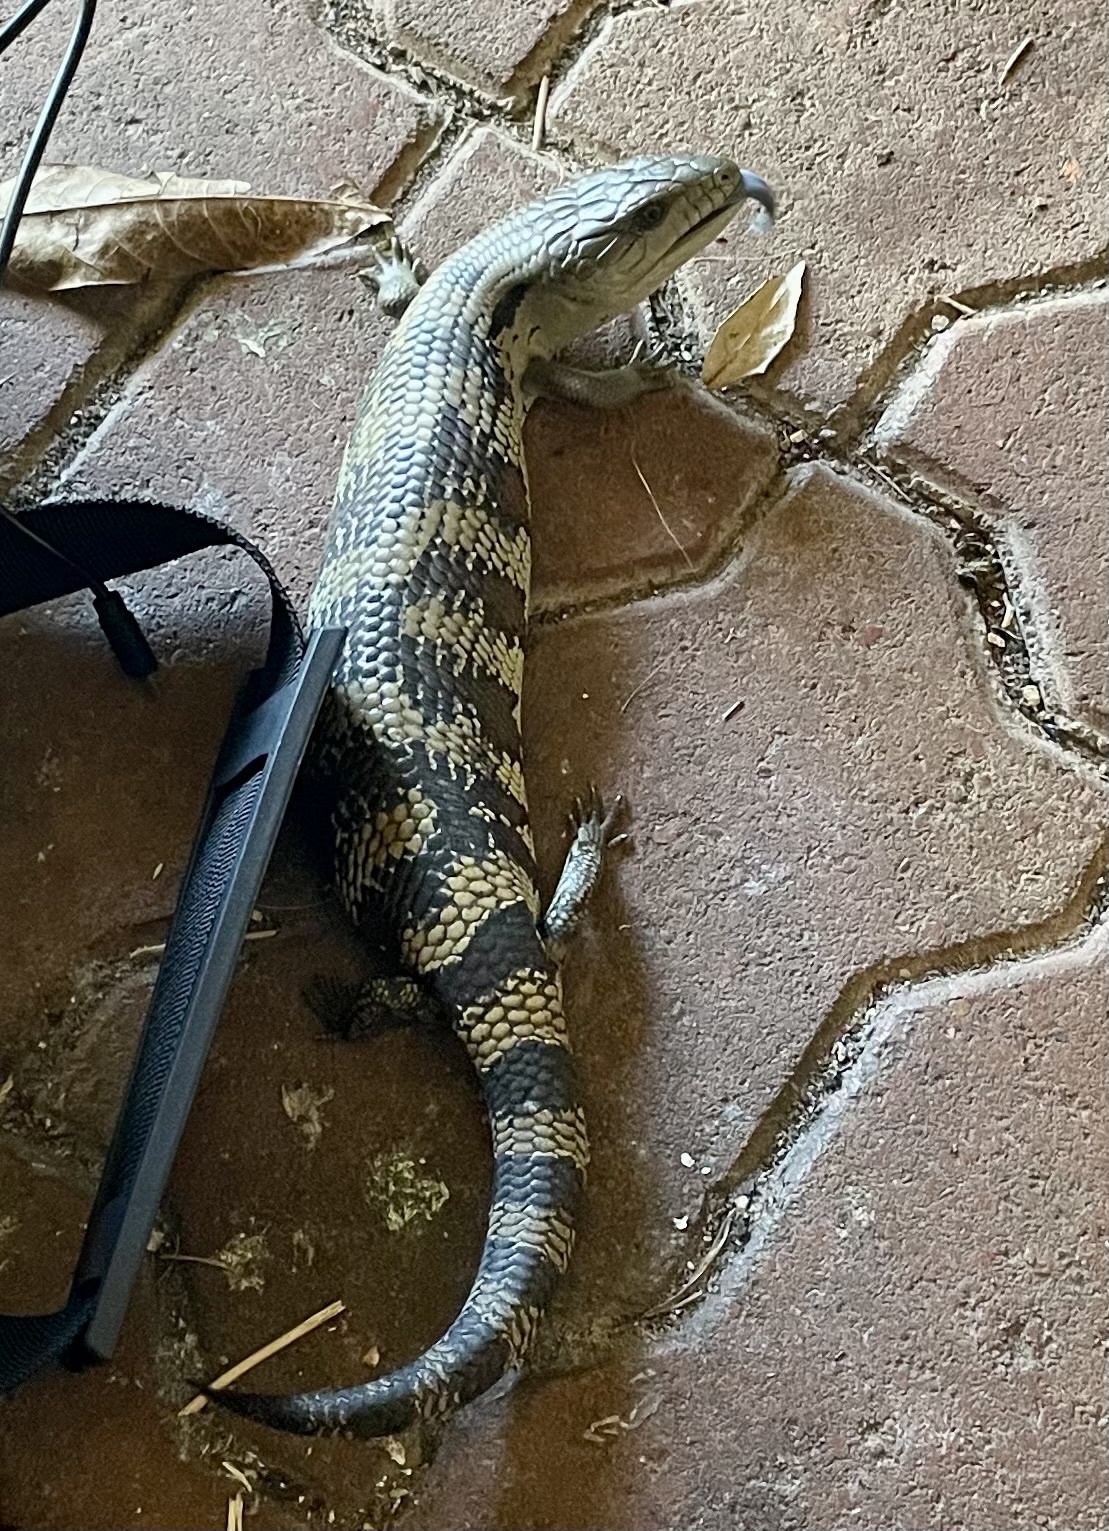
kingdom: Animalia
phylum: Chordata
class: Squamata
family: Scincidae
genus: Tiliqua
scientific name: Tiliqua scincoides
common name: Common bluetongue
